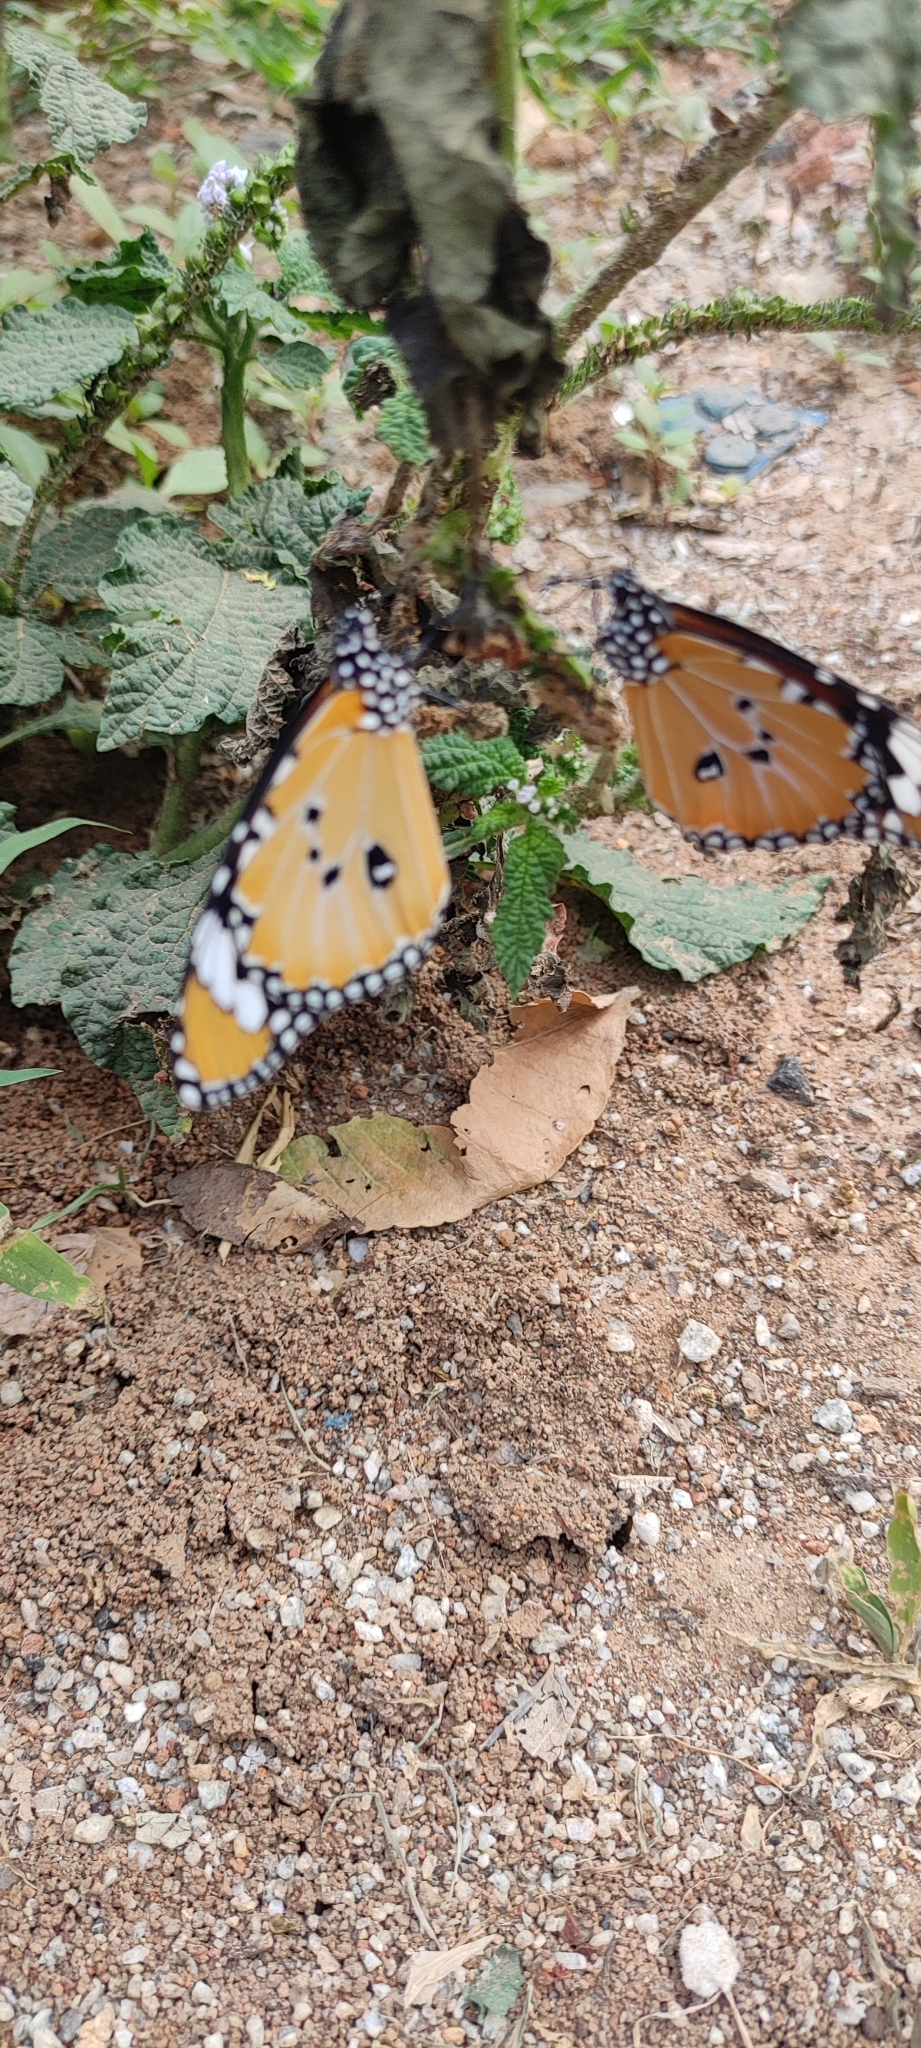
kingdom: Animalia
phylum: Arthropoda
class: Insecta
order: Lepidoptera
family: Nymphalidae
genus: Danaus
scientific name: Danaus chrysippus
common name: Plain tiger
